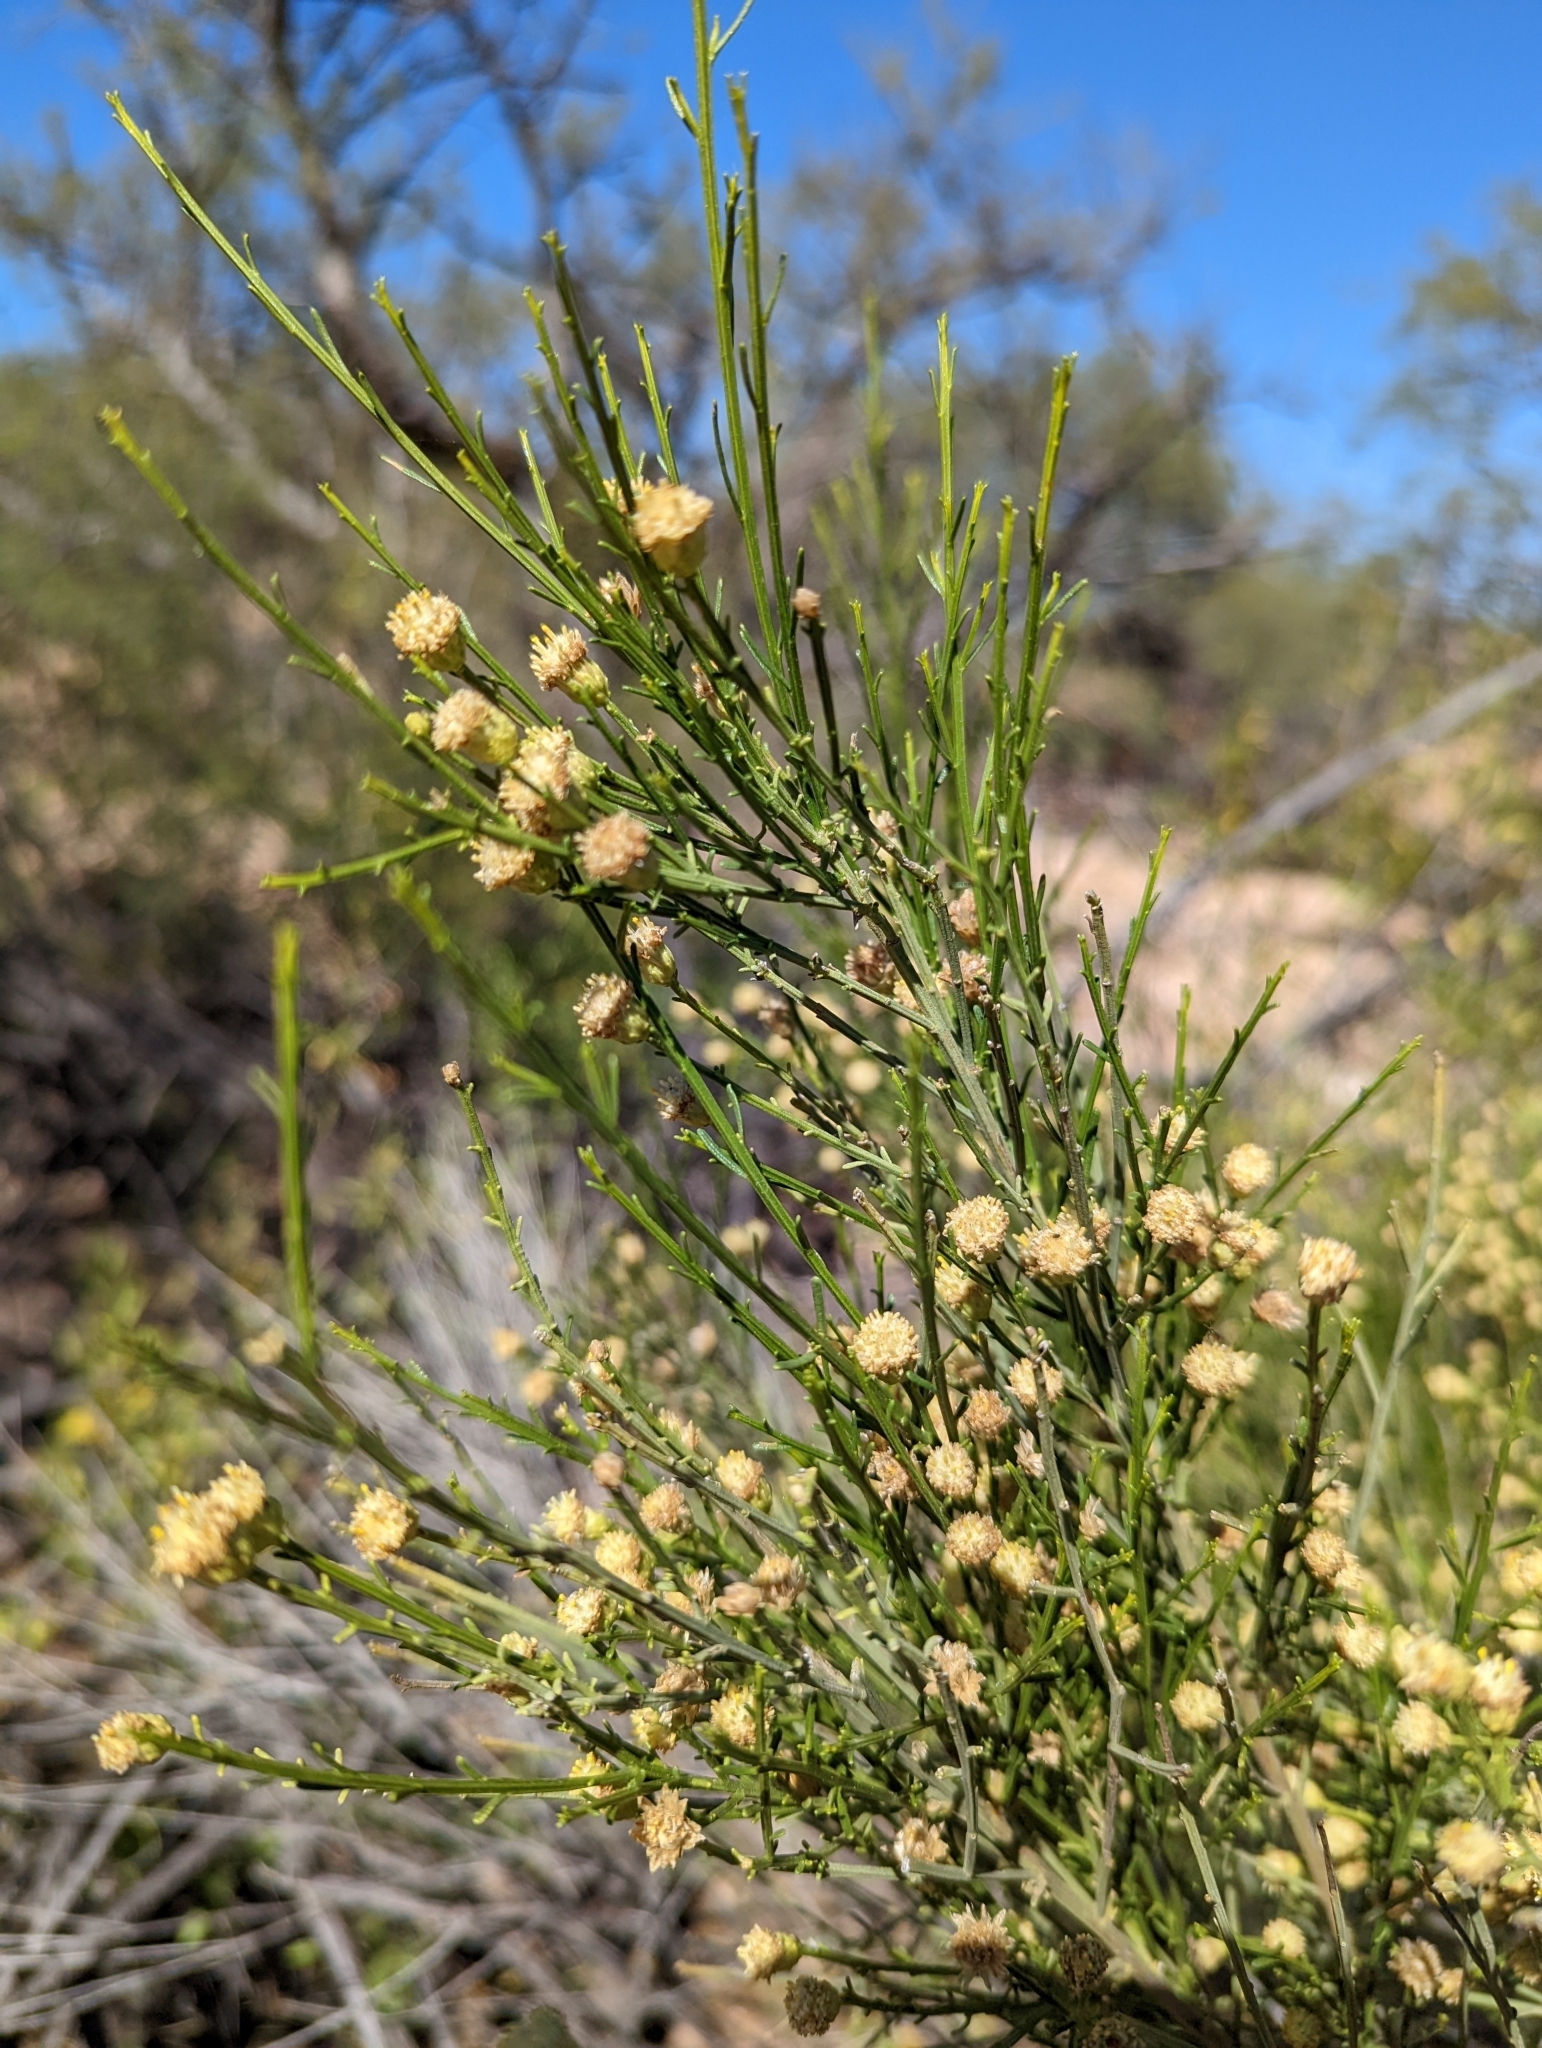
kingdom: Plantae
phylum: Tracheophyta
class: Magnoliopsida
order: Asterales
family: Asteraceae
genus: Baccharis
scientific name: Baccharis sarothroides
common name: Desert-broom
